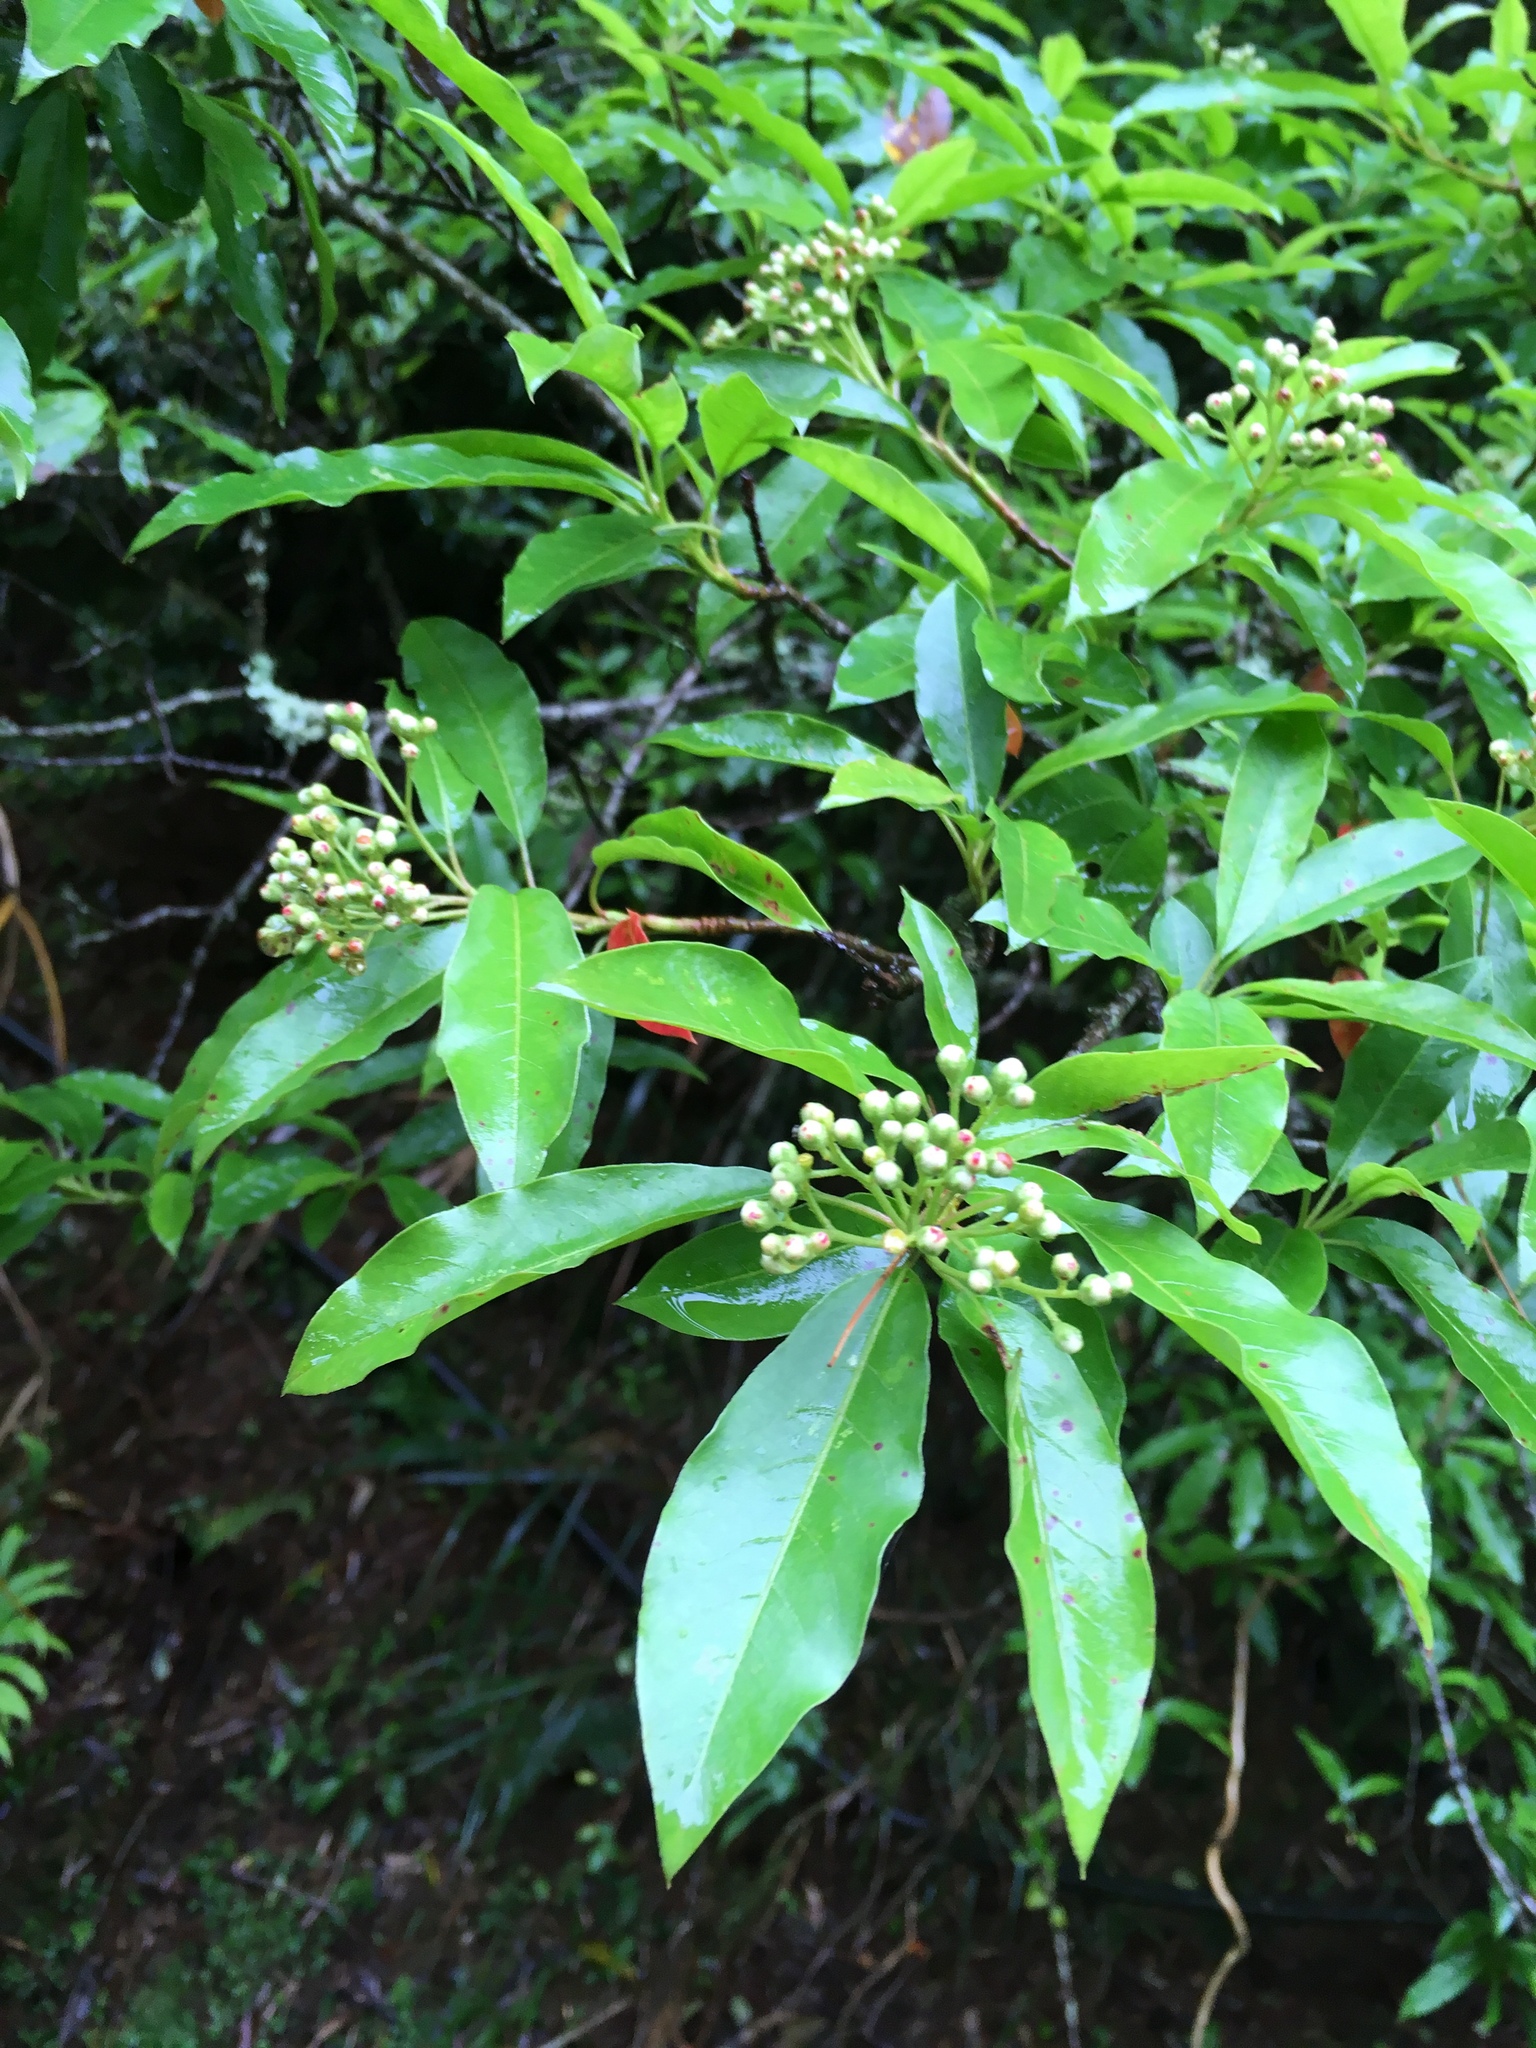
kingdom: Plantae
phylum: Tracheophyta
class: Magnoliopsida
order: Rosales
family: Rosaceae
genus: Stranvaesia
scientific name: Stranvaesia davidiana
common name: Chinese photinia
